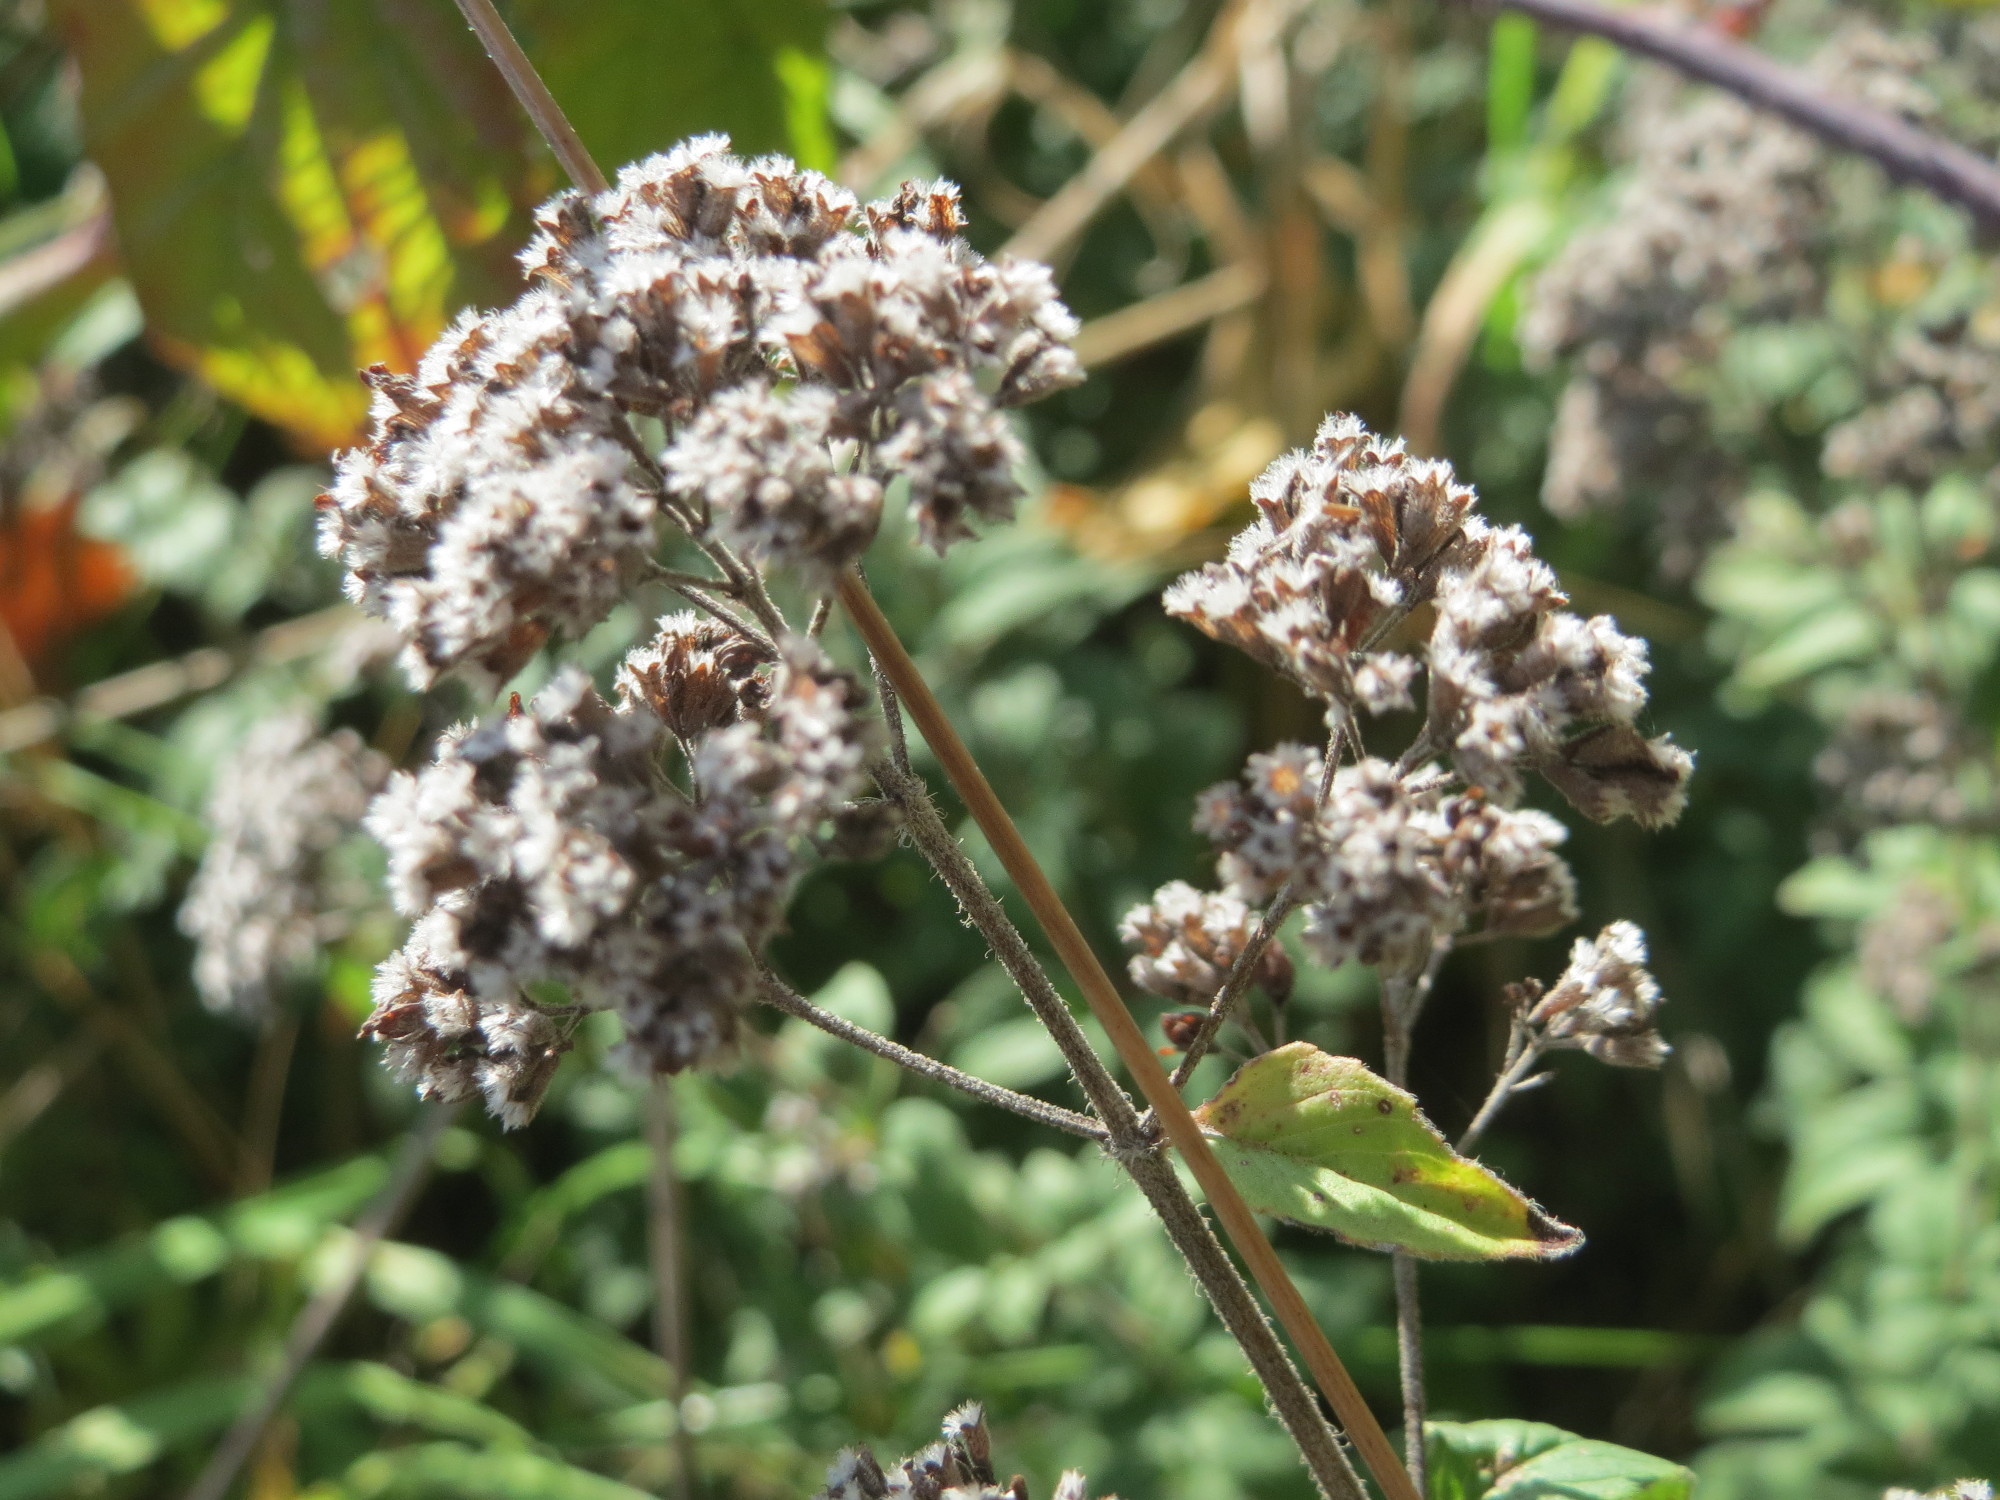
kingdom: Plantae
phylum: Tracheophyta
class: Magnoliopsida
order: Lamiales
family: Lamiaceae
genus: Origanum
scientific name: Origanum vulgare
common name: Wild marjoram
